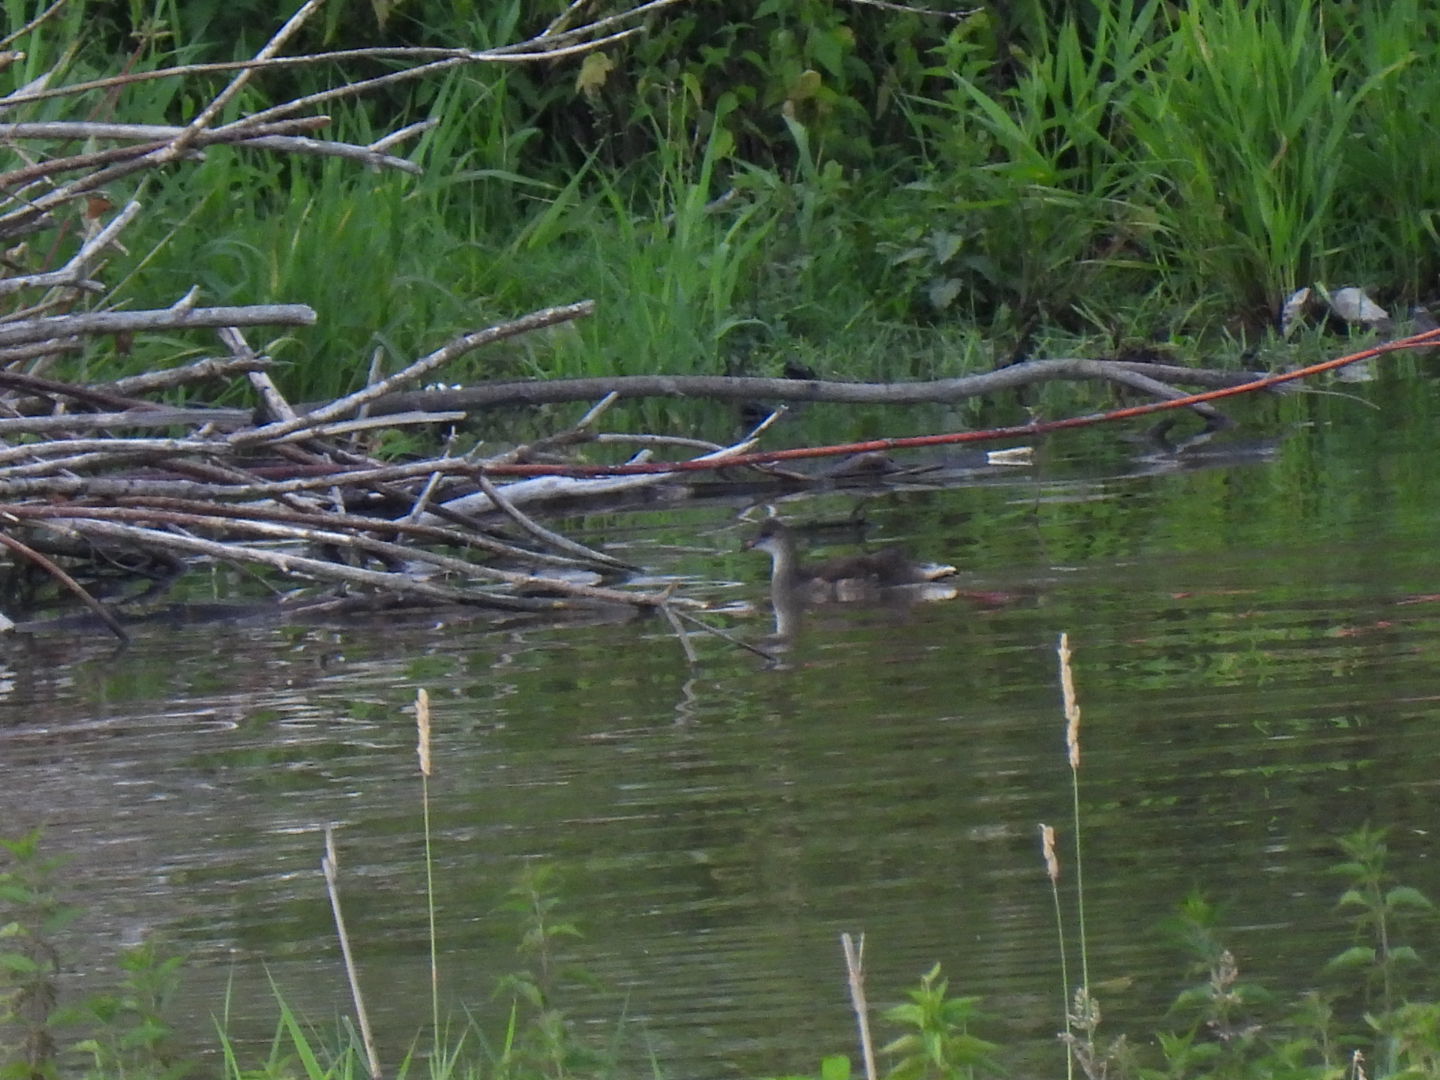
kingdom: Animalia
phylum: Chordata
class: Aves
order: Gruiformes
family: Rallidae
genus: Gallinula
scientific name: Gallinula chloropus
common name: Common moorhen
